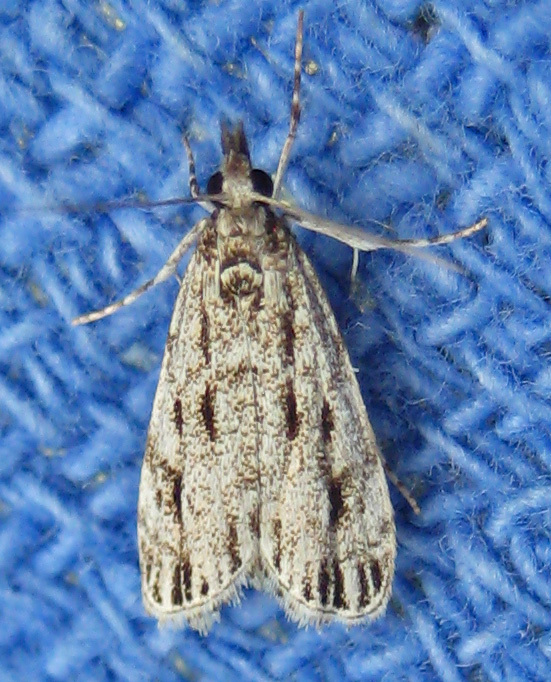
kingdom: Animalia
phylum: Arthropoda
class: Insecta
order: Lepidoptera
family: Crambidae
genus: Eudonia
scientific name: Eudonia strigalis
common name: Striped eudonia moth
